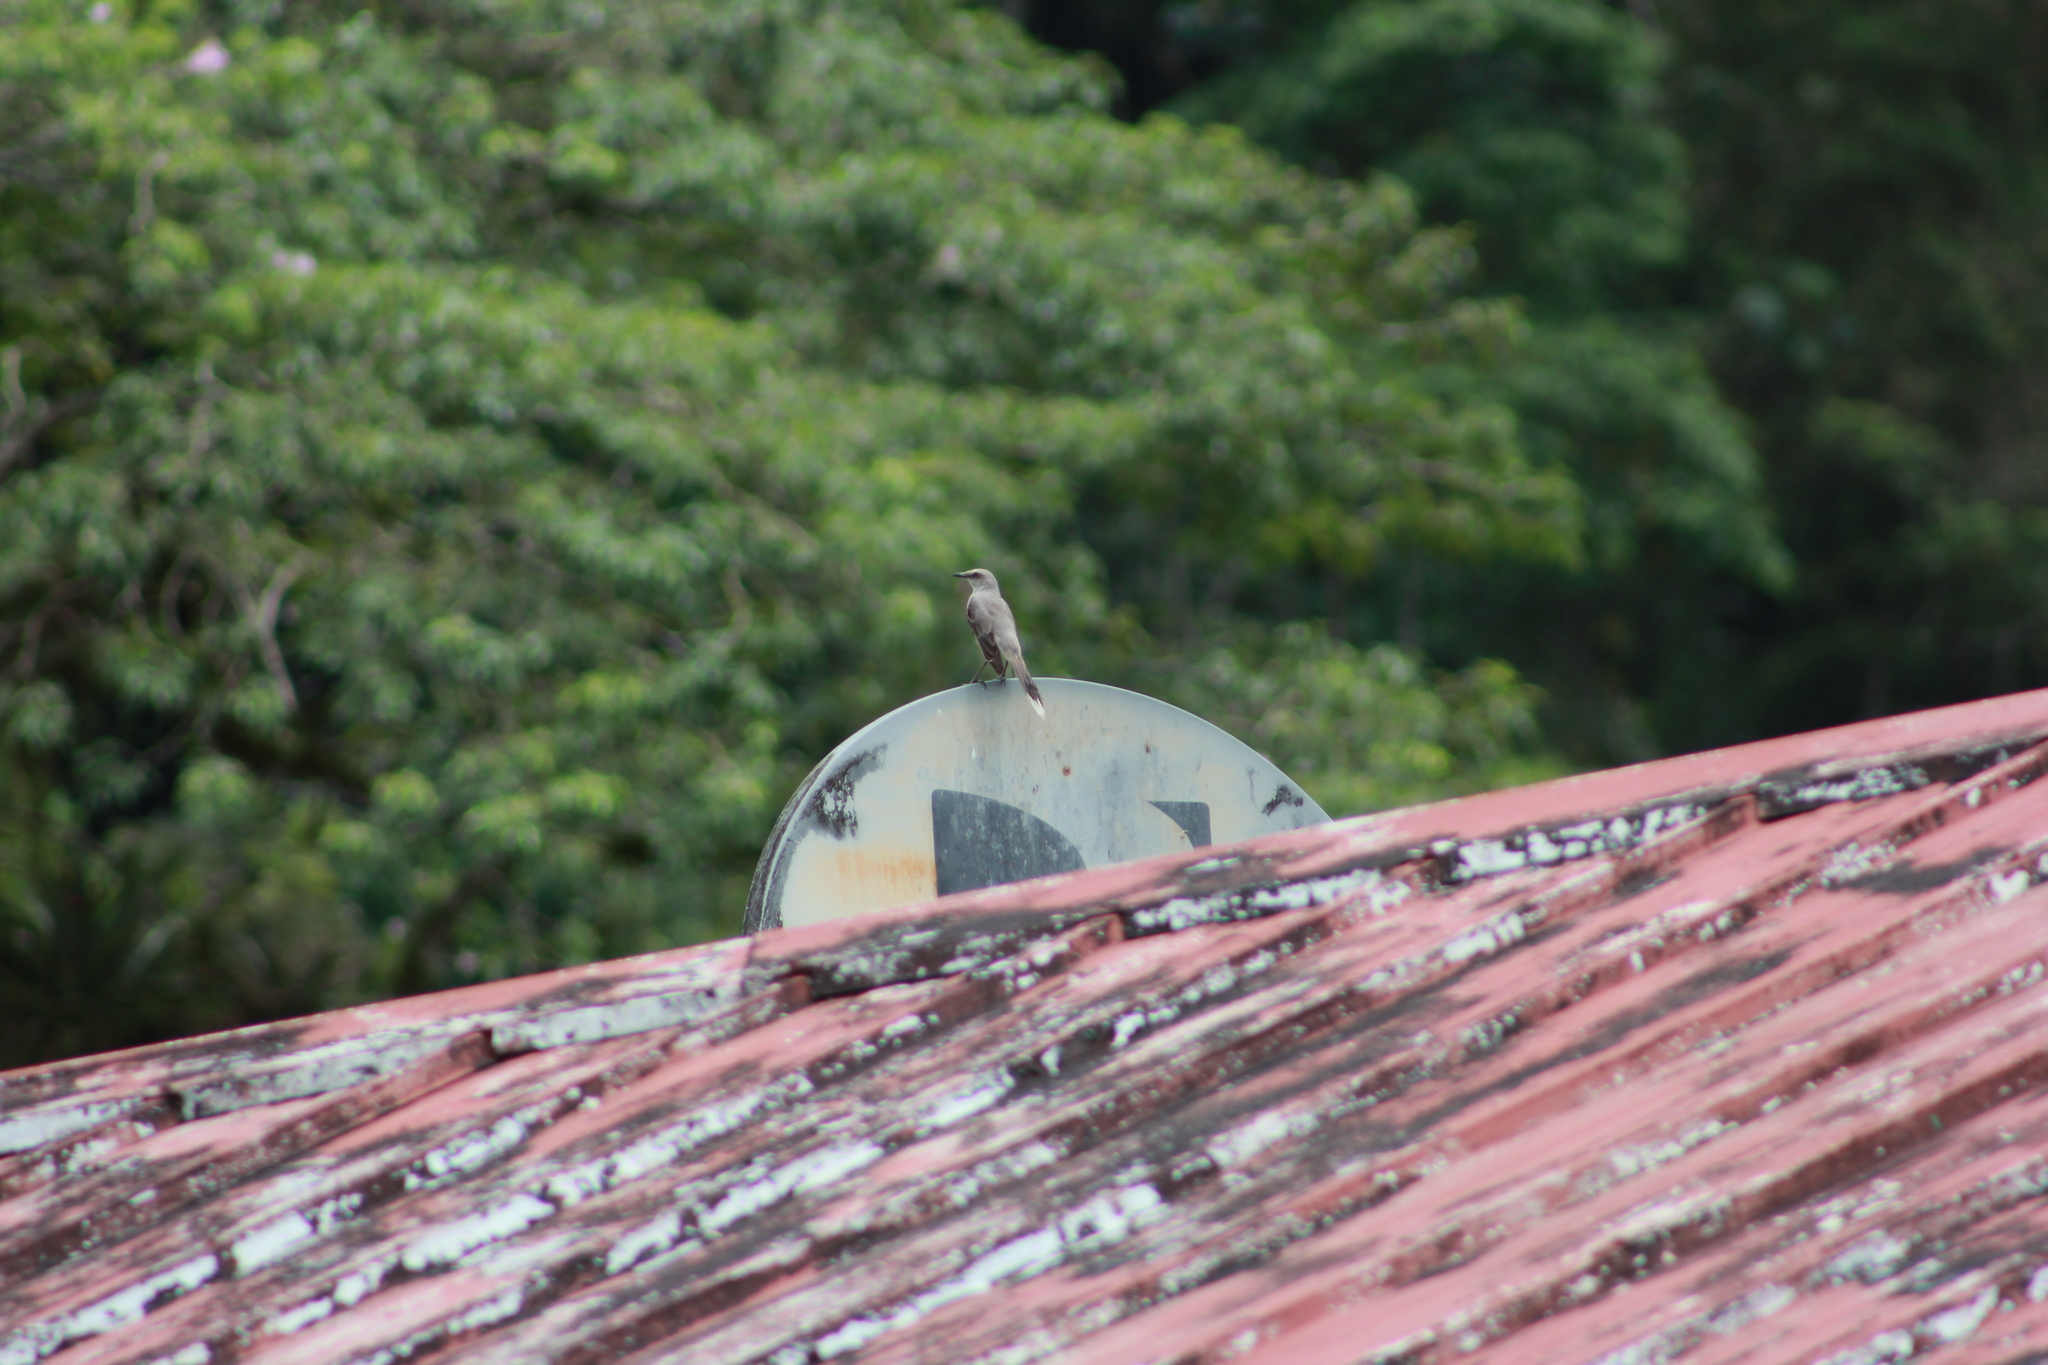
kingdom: Animalia
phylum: Chordata
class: Aves
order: Passeriformes
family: Mimidae
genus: Mimus
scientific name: Mimus gilvus
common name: Tropical mockingbird
